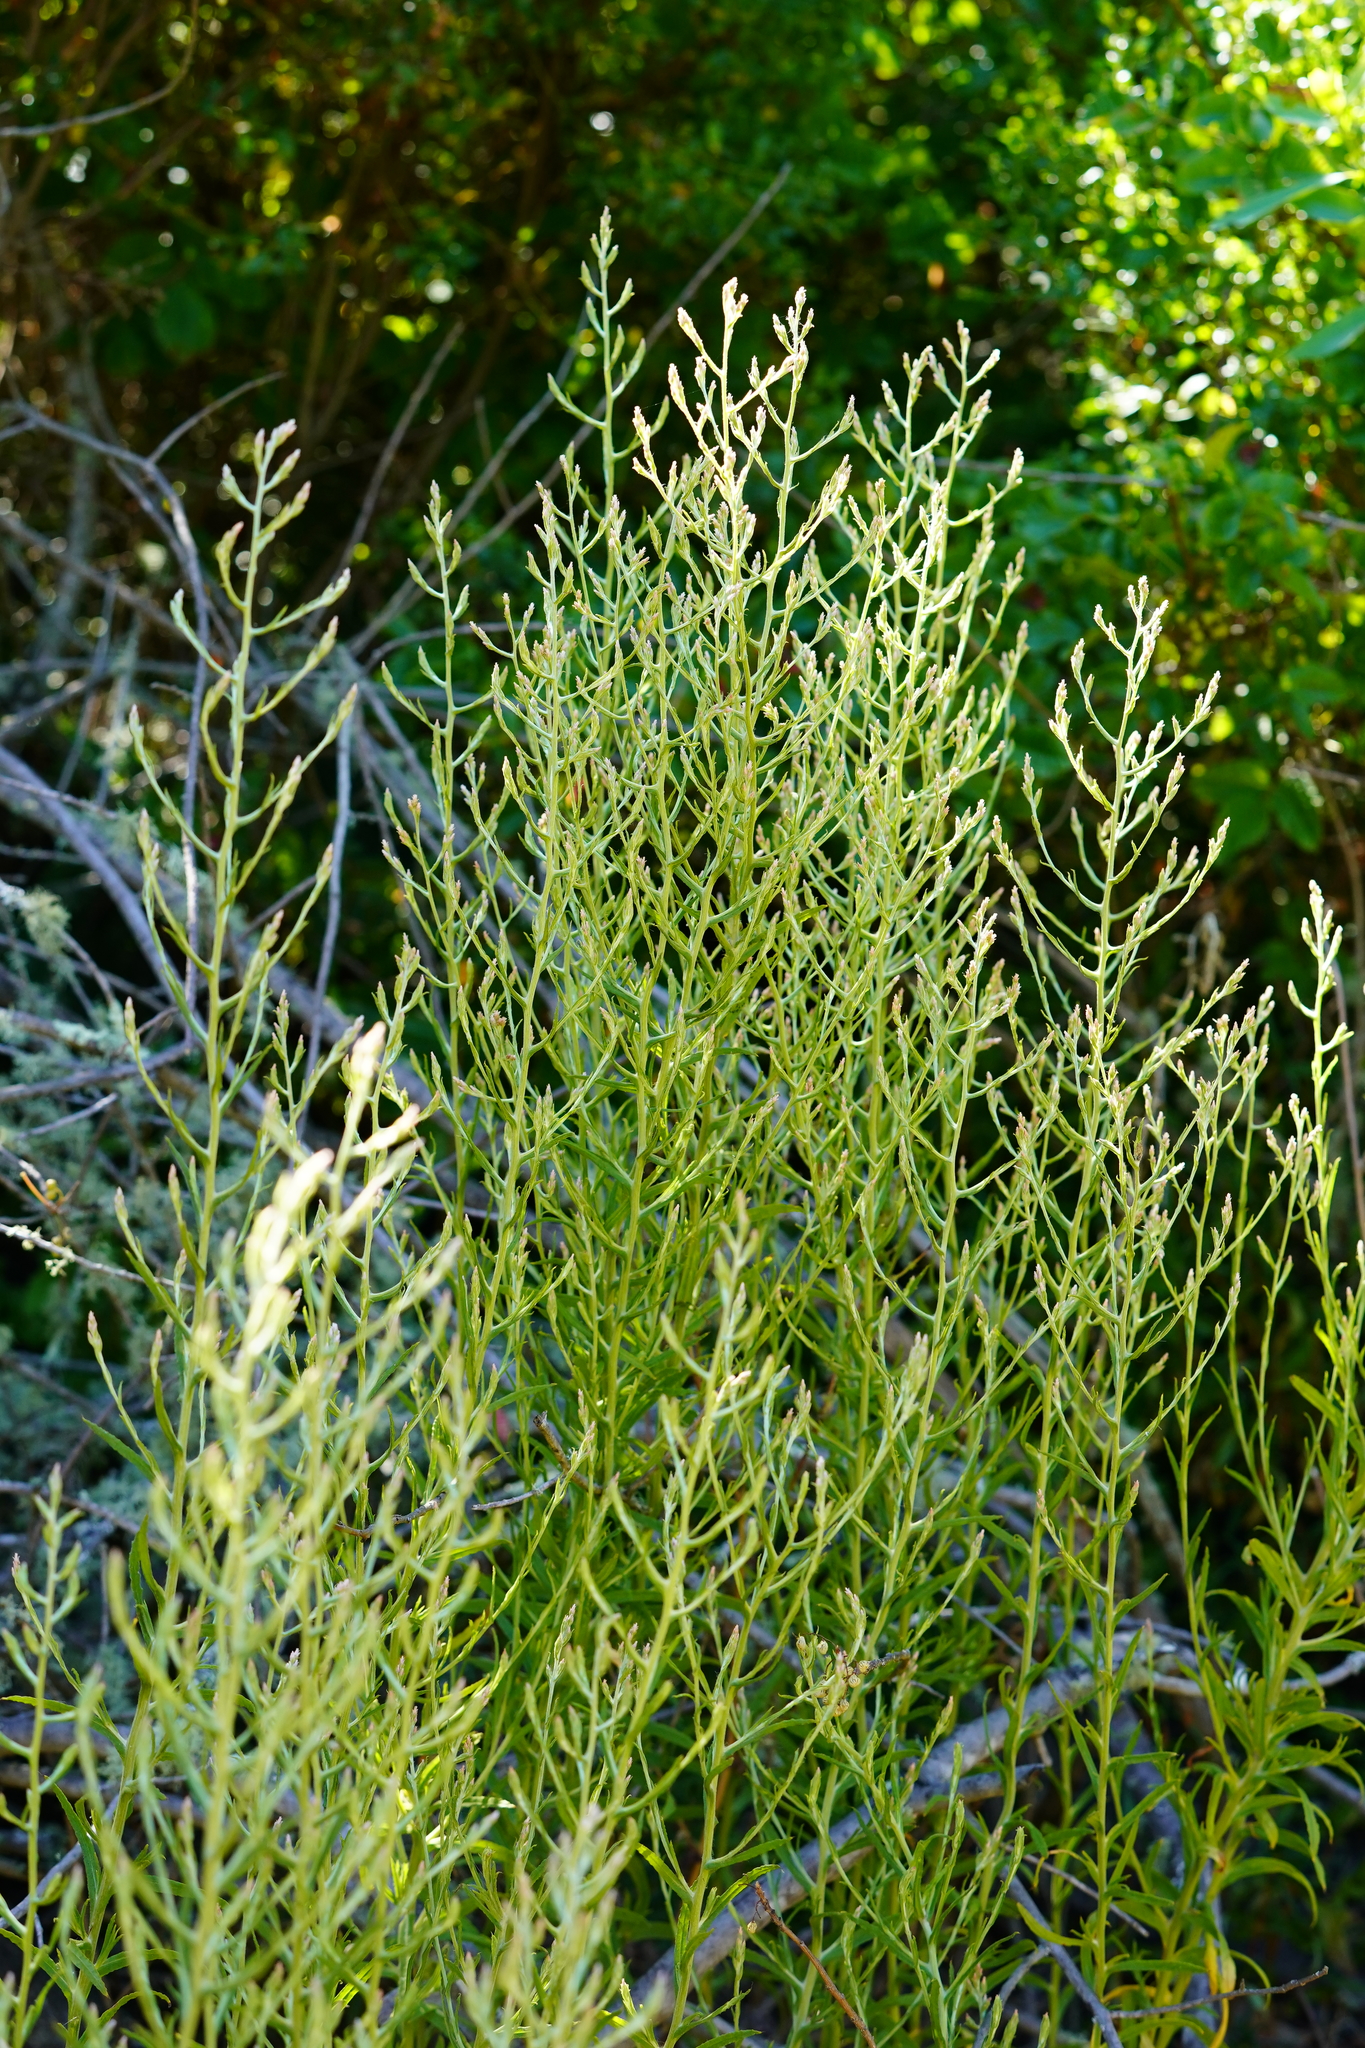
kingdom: Plantae
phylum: Tracheophyta
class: Magnoliopsida
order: Asterales
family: Asteraceae
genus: Pseudognaphalium
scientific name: Pseudognaphalium ramosissimum
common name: Pink rabbit-tobacco
